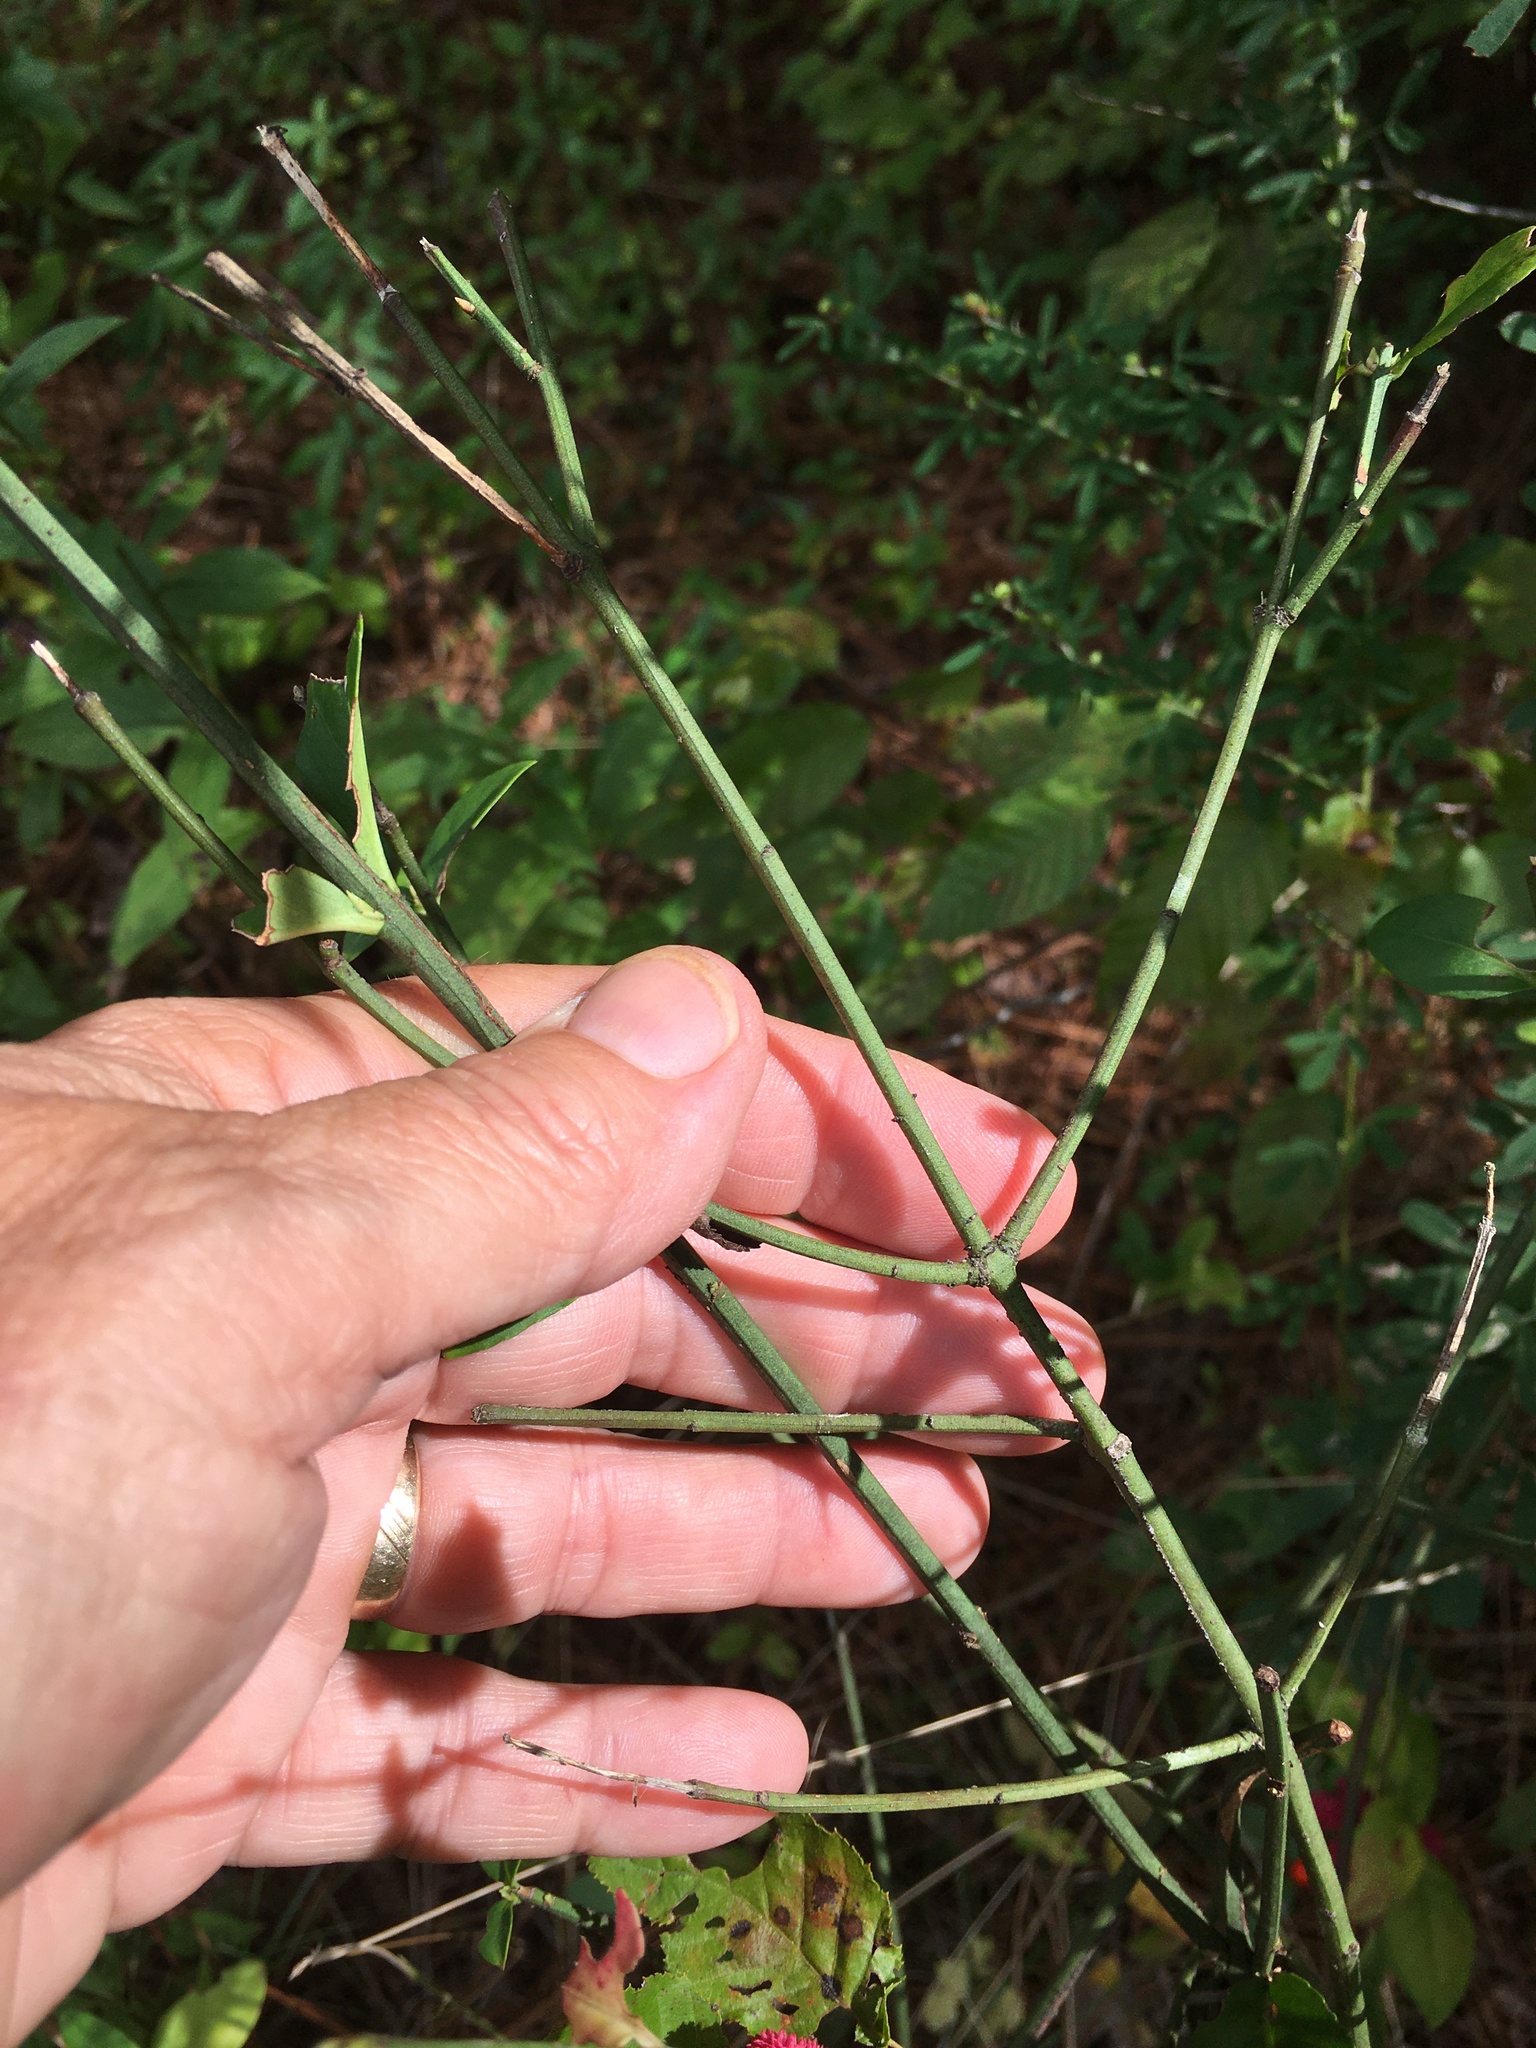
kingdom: Plantae
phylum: Tracheophyta
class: Magnoliopsida
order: Celastrales
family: Celastraceae
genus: Euonymus
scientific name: Euonymus americanus
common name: Bursting-heart
